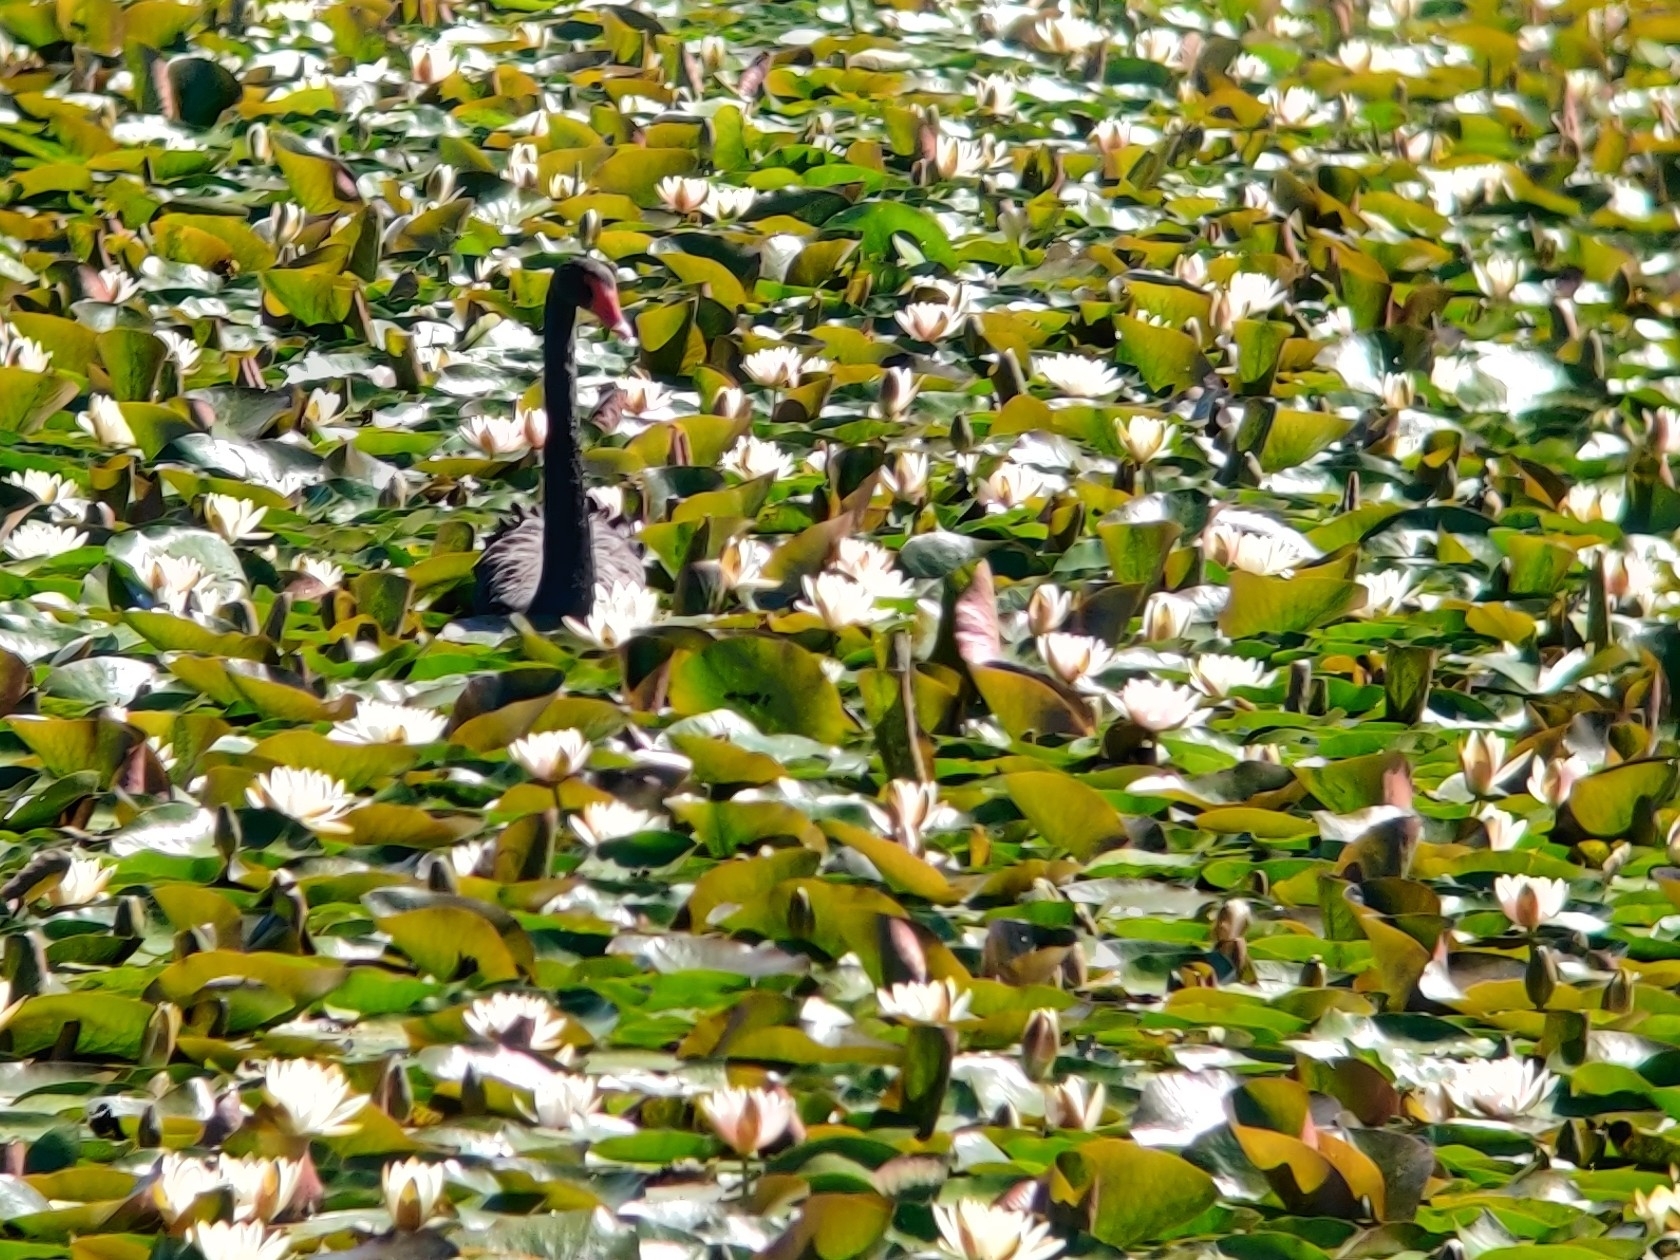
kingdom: Animalia
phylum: Chordata
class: Aves
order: Anseriformes
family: Anatidae
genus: Cygnus
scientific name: Cygnus atratus
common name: Black swan
